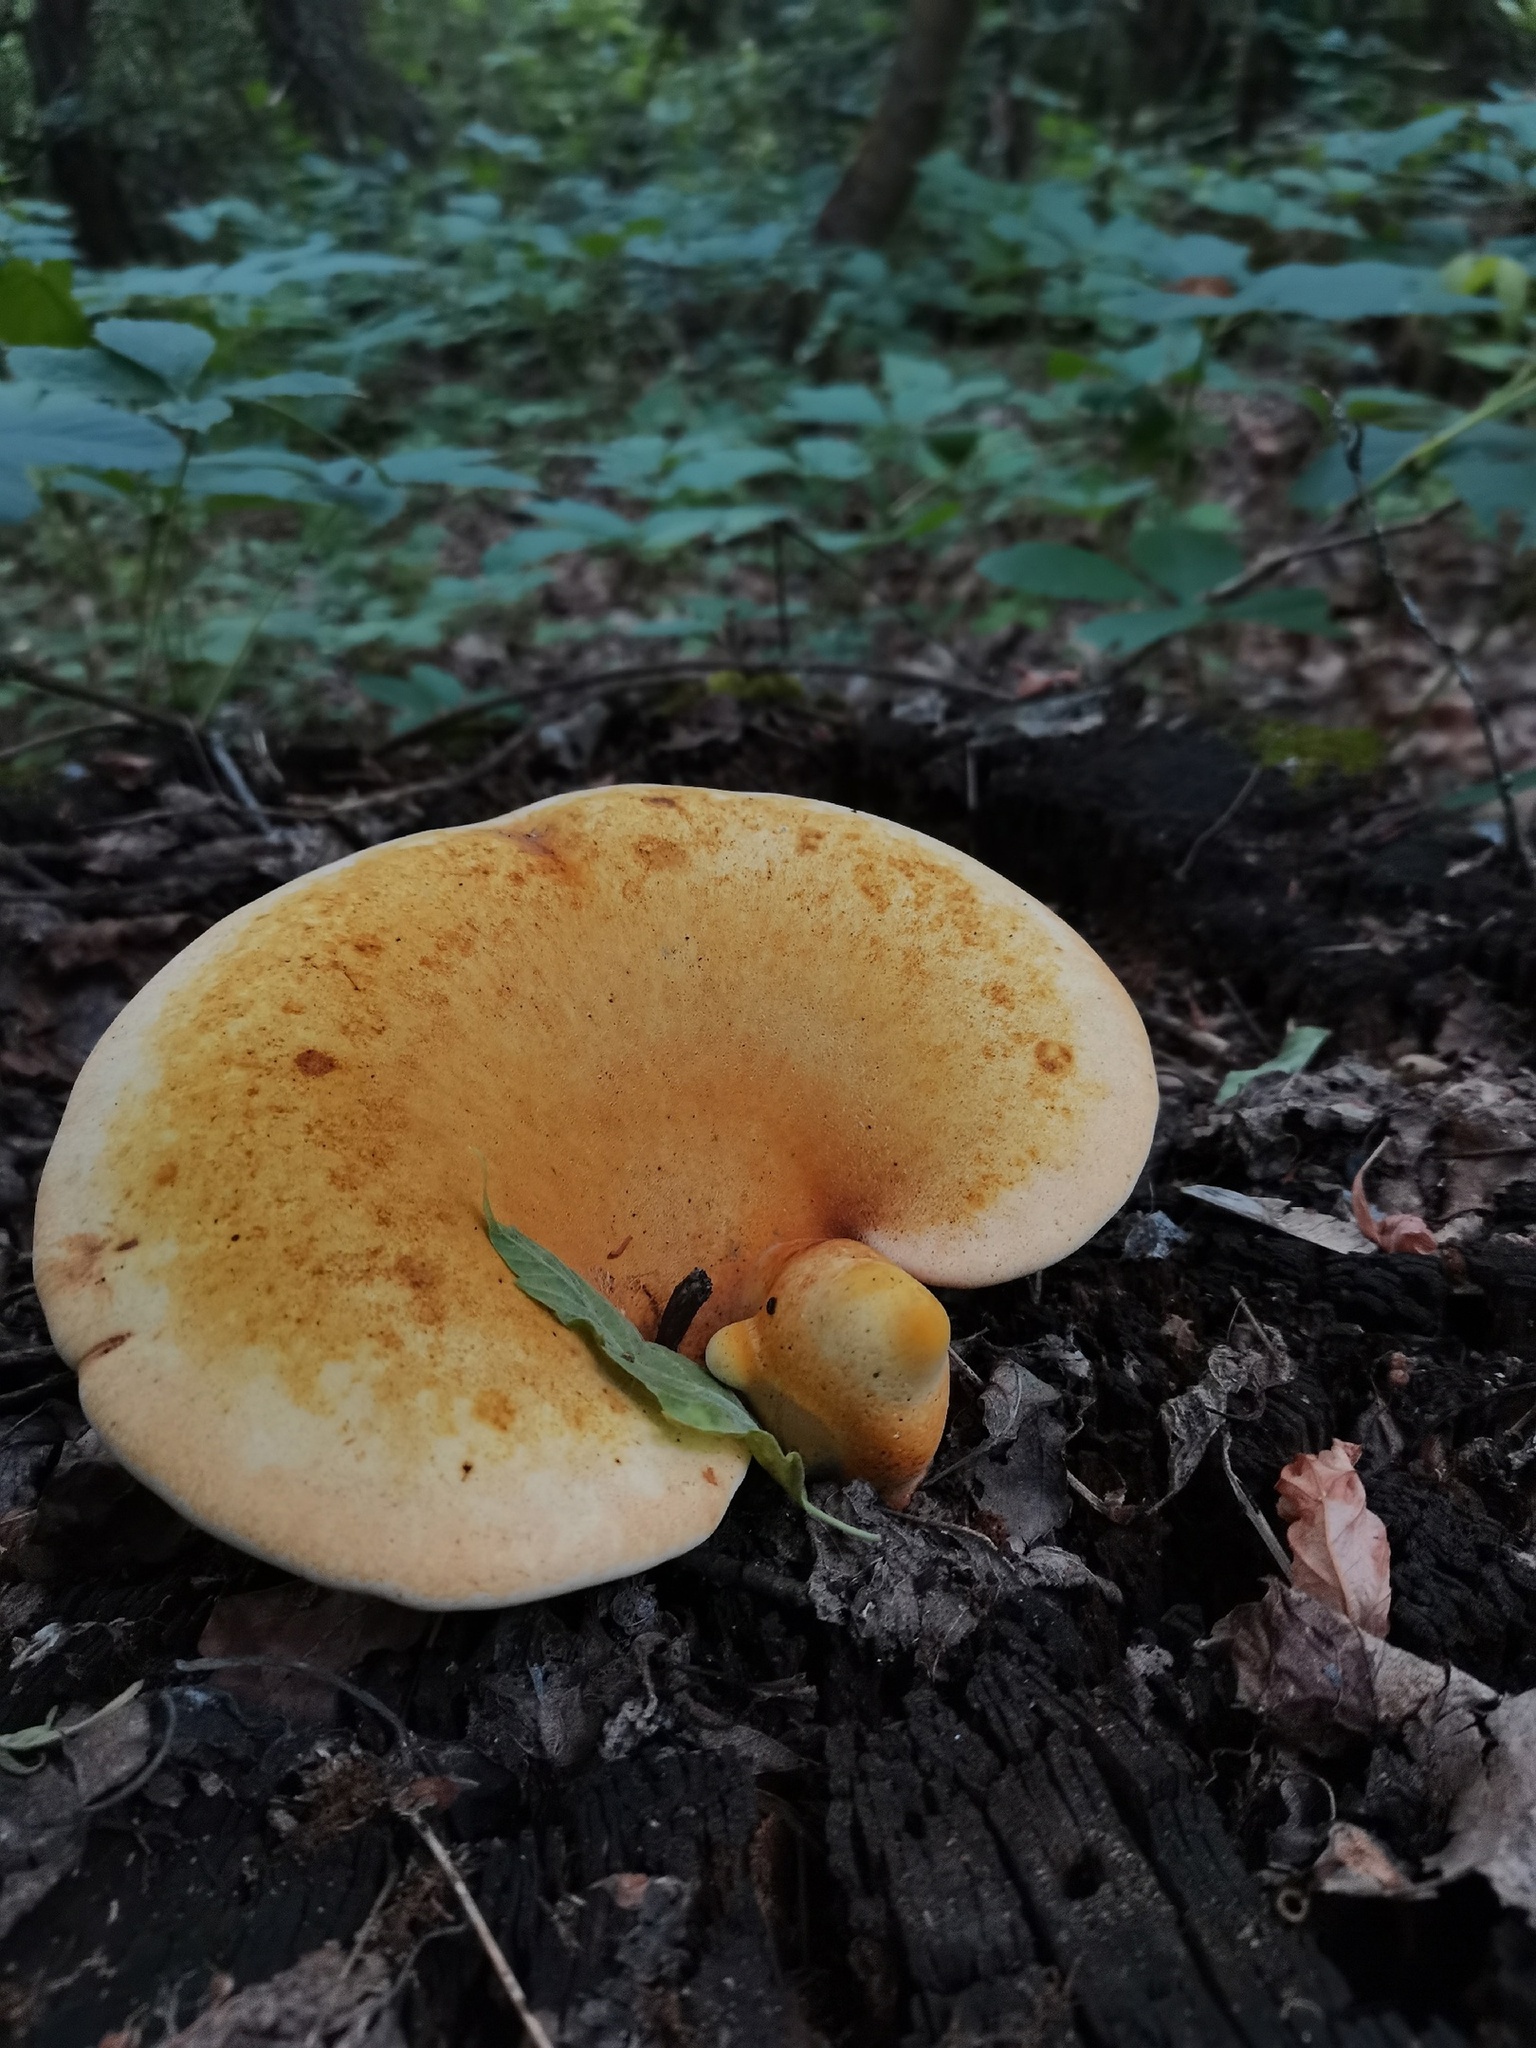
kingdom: Fungi
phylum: Basidiomycota
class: Agaricomycetes
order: Polyporales
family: Fomitopsidaceae
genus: Fomitopsis
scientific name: Fomitopsis
